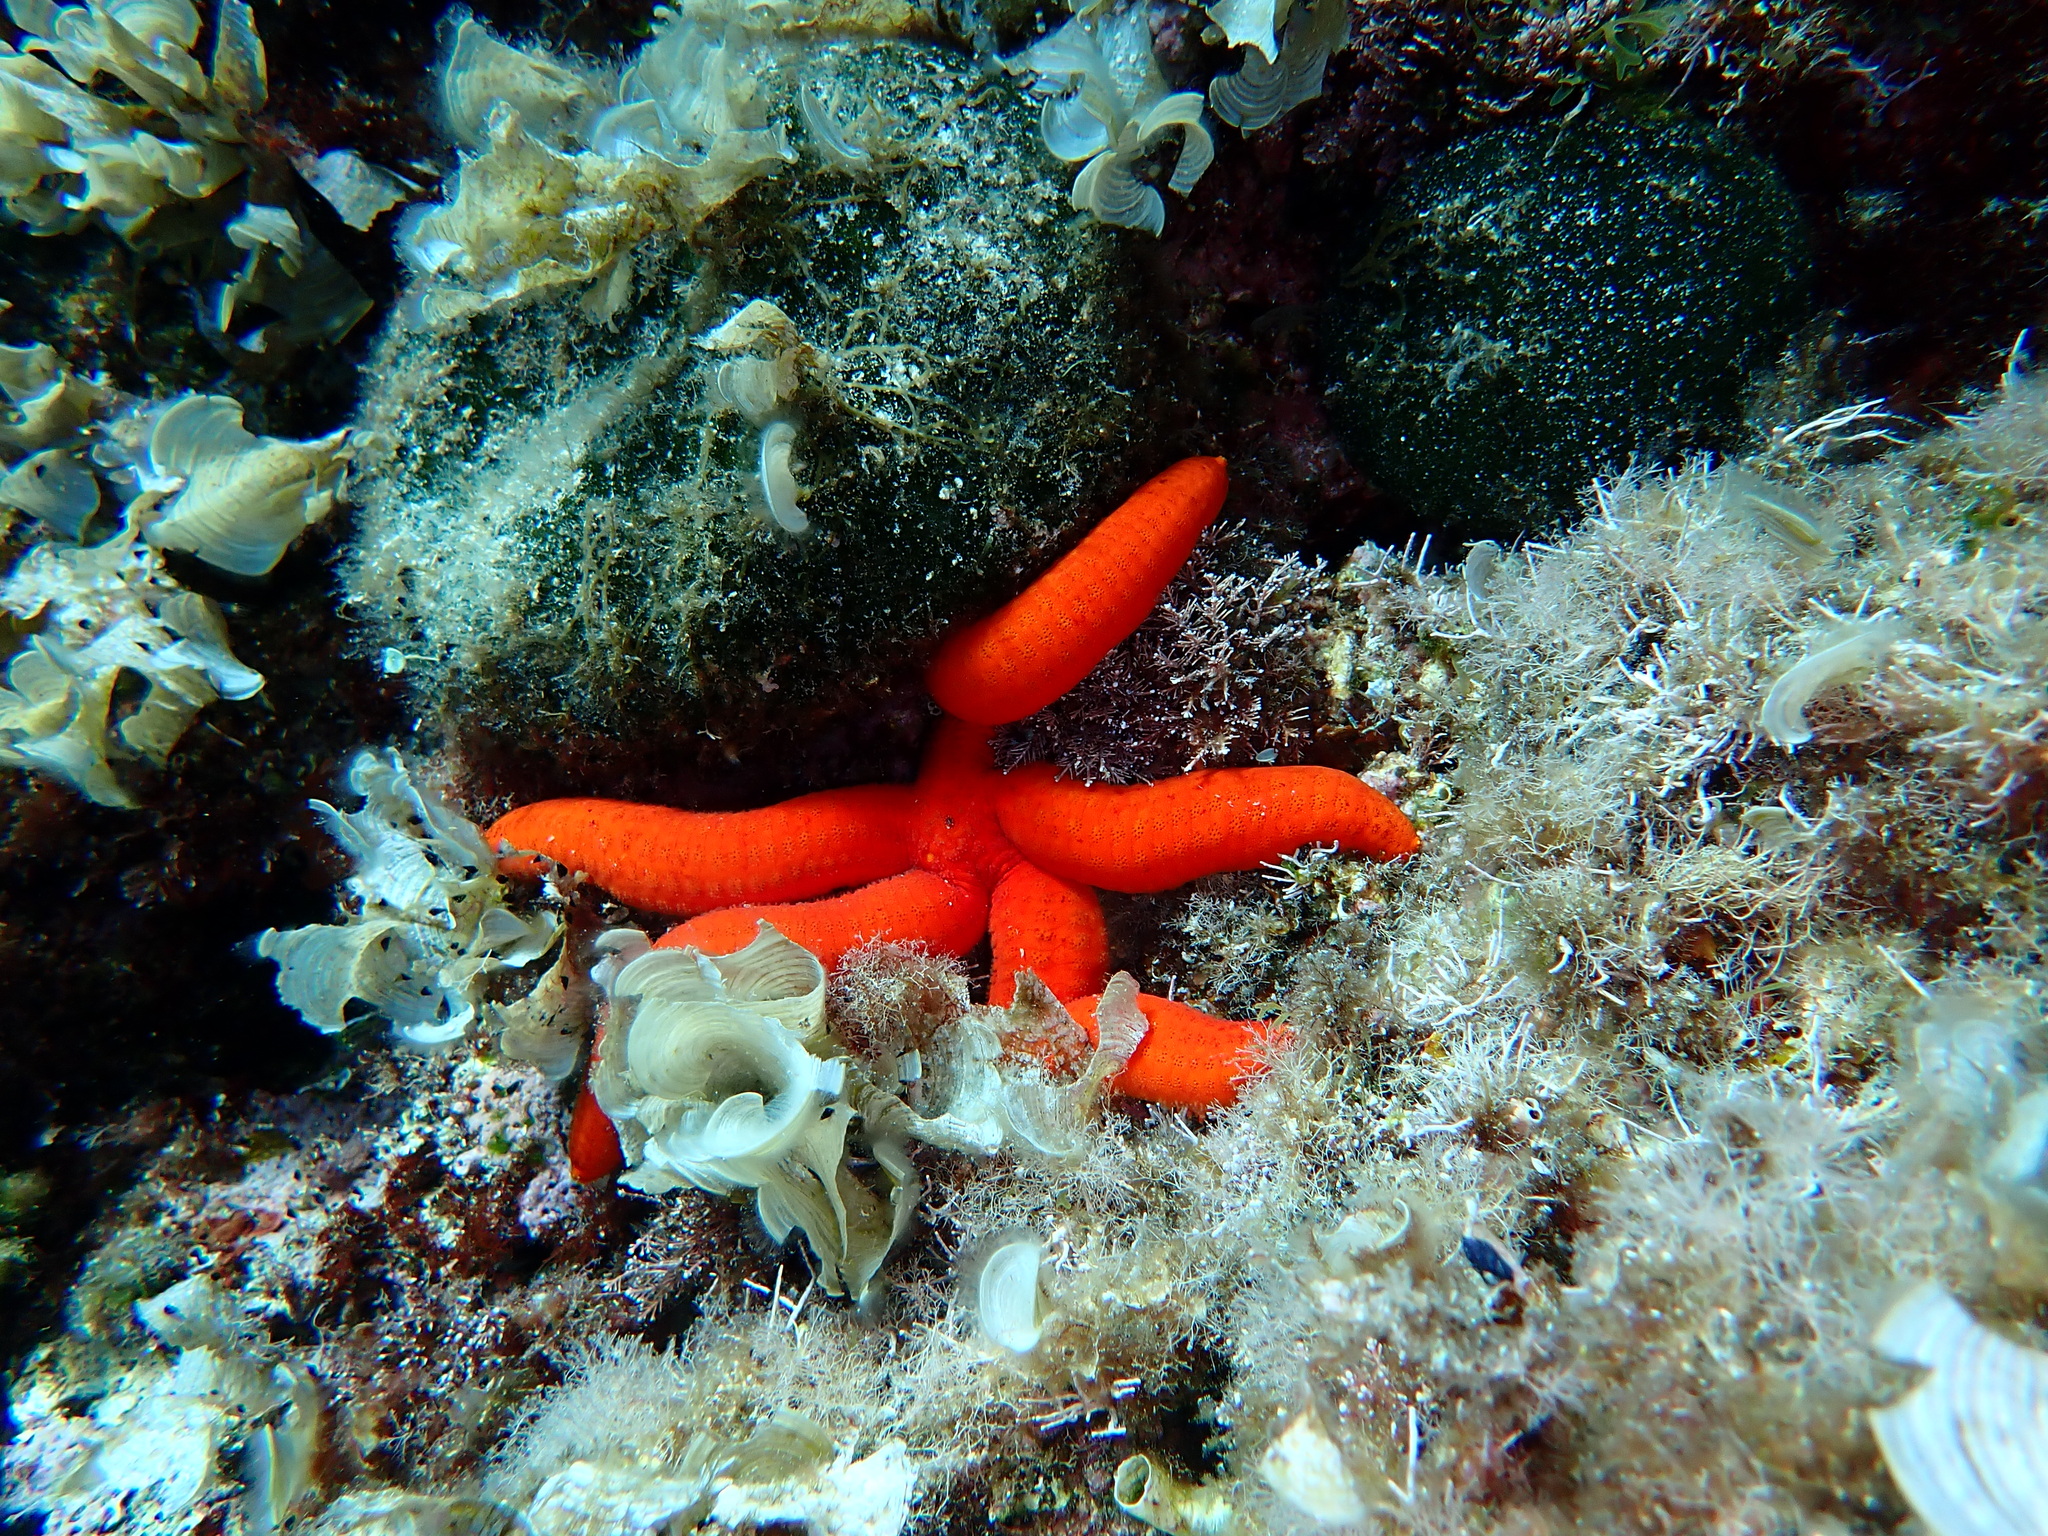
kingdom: Animalia
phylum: Echinodermata
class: Asteroidea
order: Valvatida
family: Ophidiasteridae
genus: Ophidiaster
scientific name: Ophidiaster ophidianus
